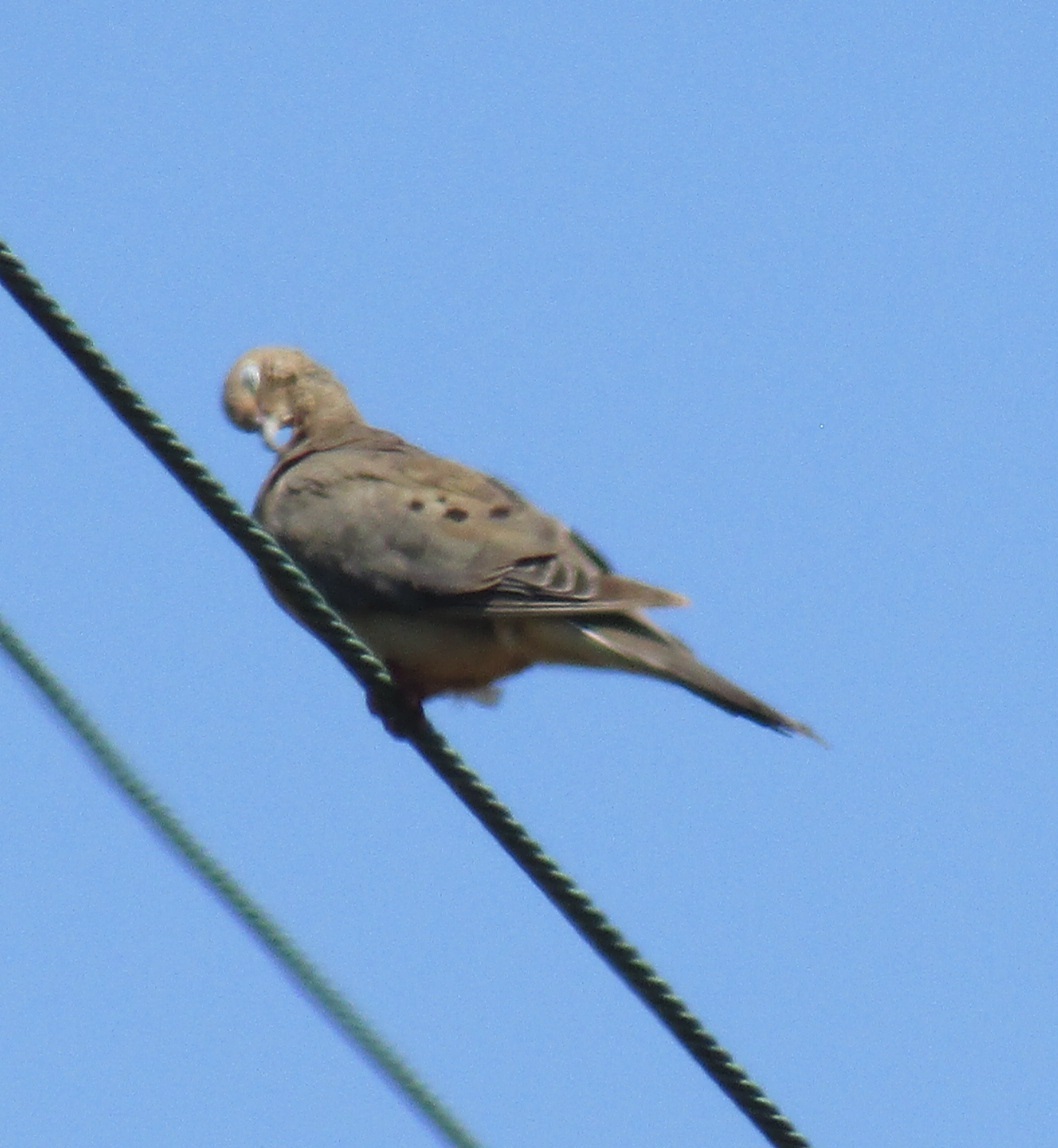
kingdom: Animalia
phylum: Chordata
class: Aves
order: Columbiformes
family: Columbidae
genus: Zenaida
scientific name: Zenaida macroura
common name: Mourning dove
